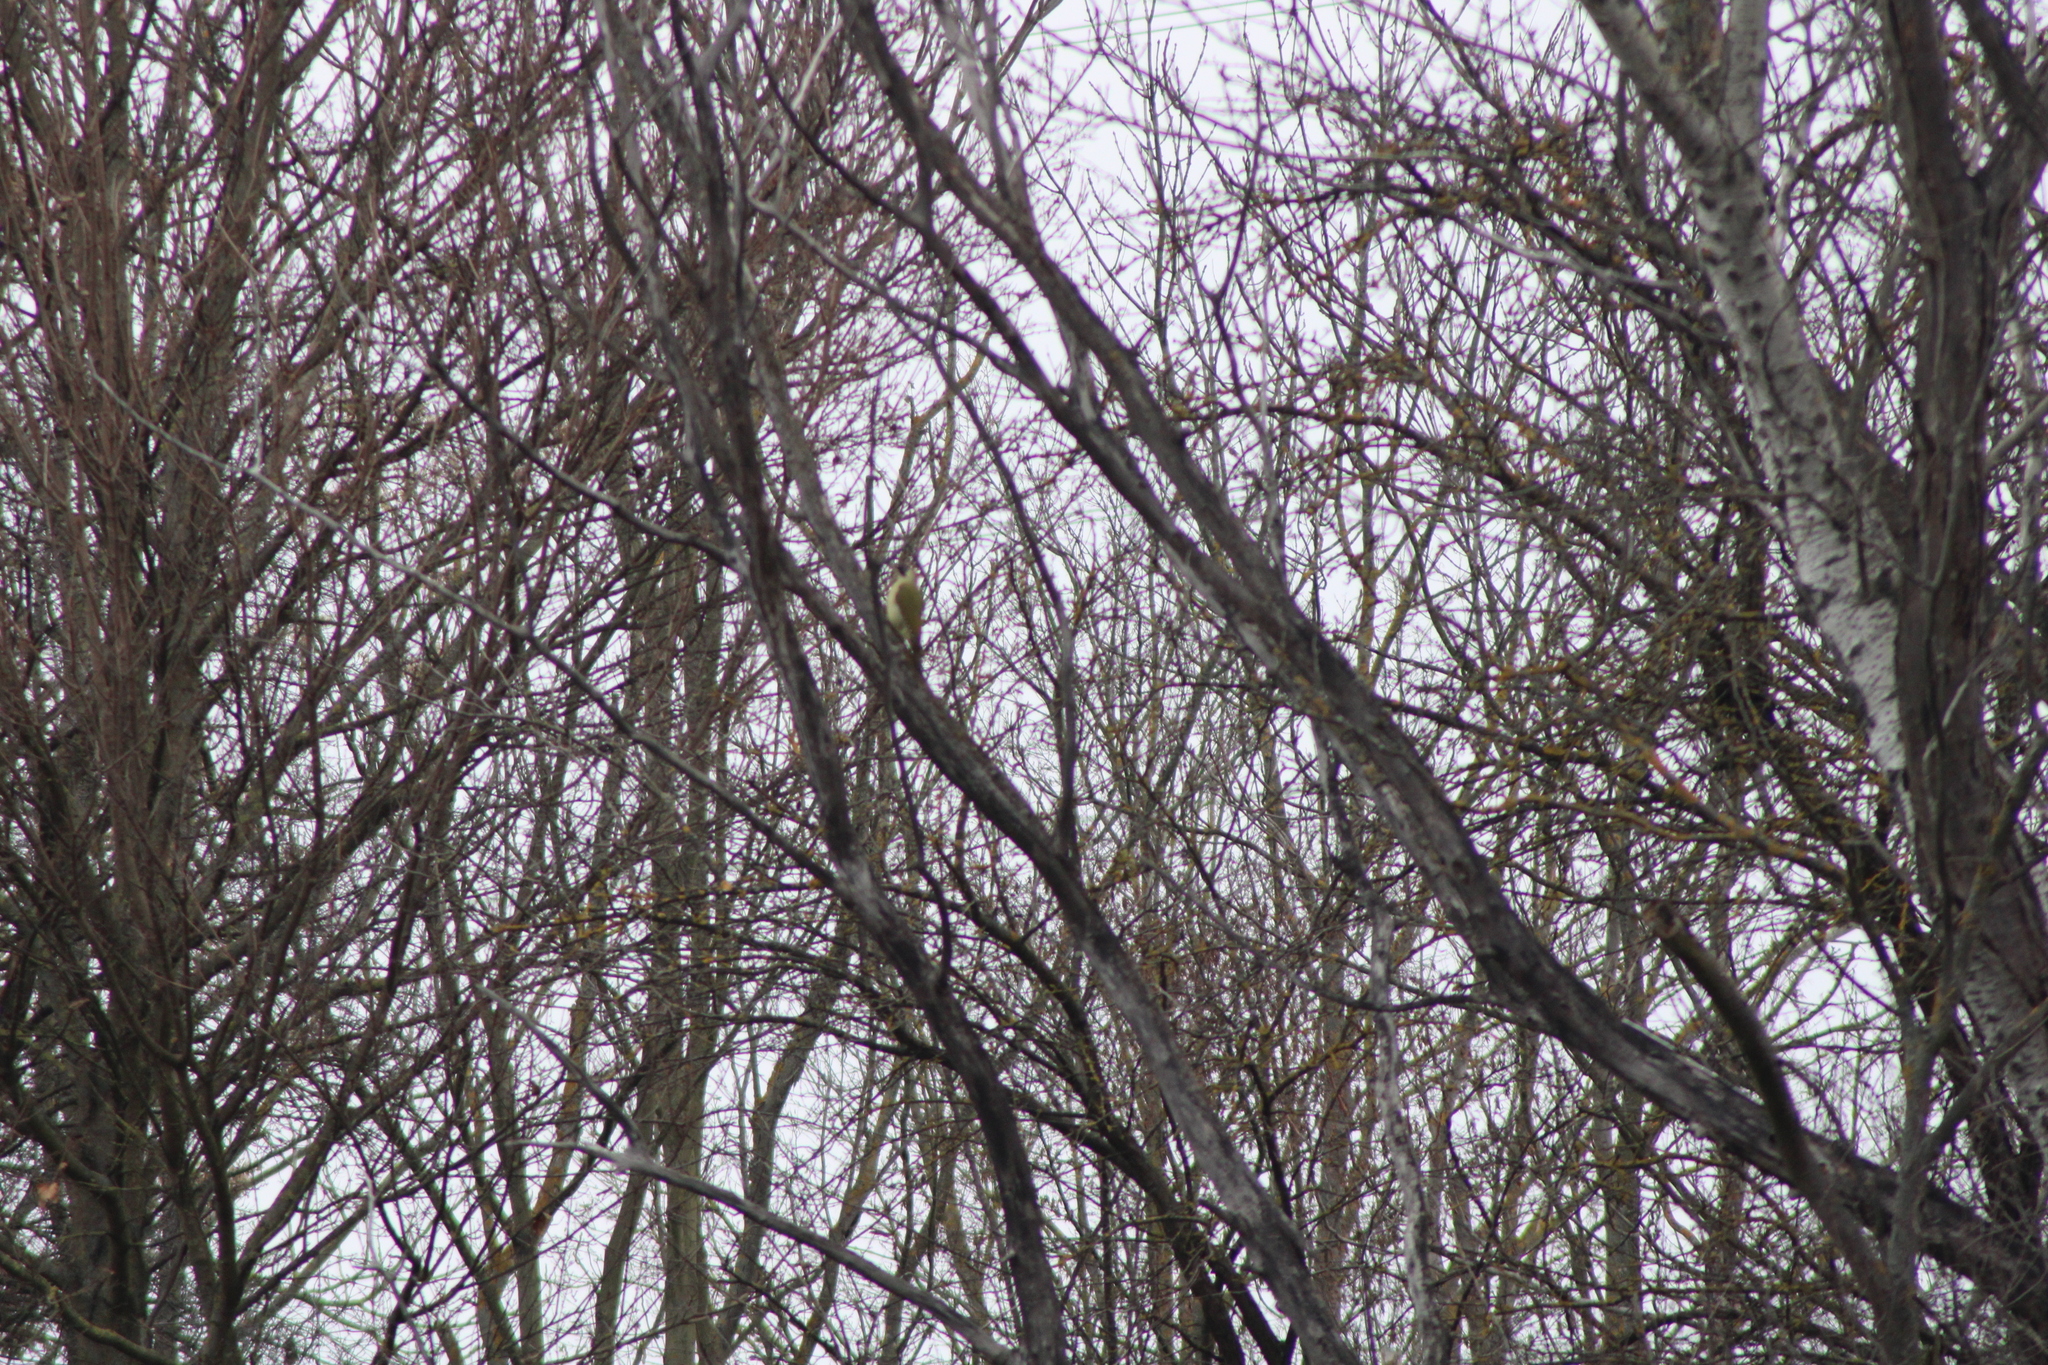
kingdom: Animalia
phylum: Chordata
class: Aves
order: Piciformes
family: Picidae
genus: Picus
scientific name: Picus viridis
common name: European green woodpecker
